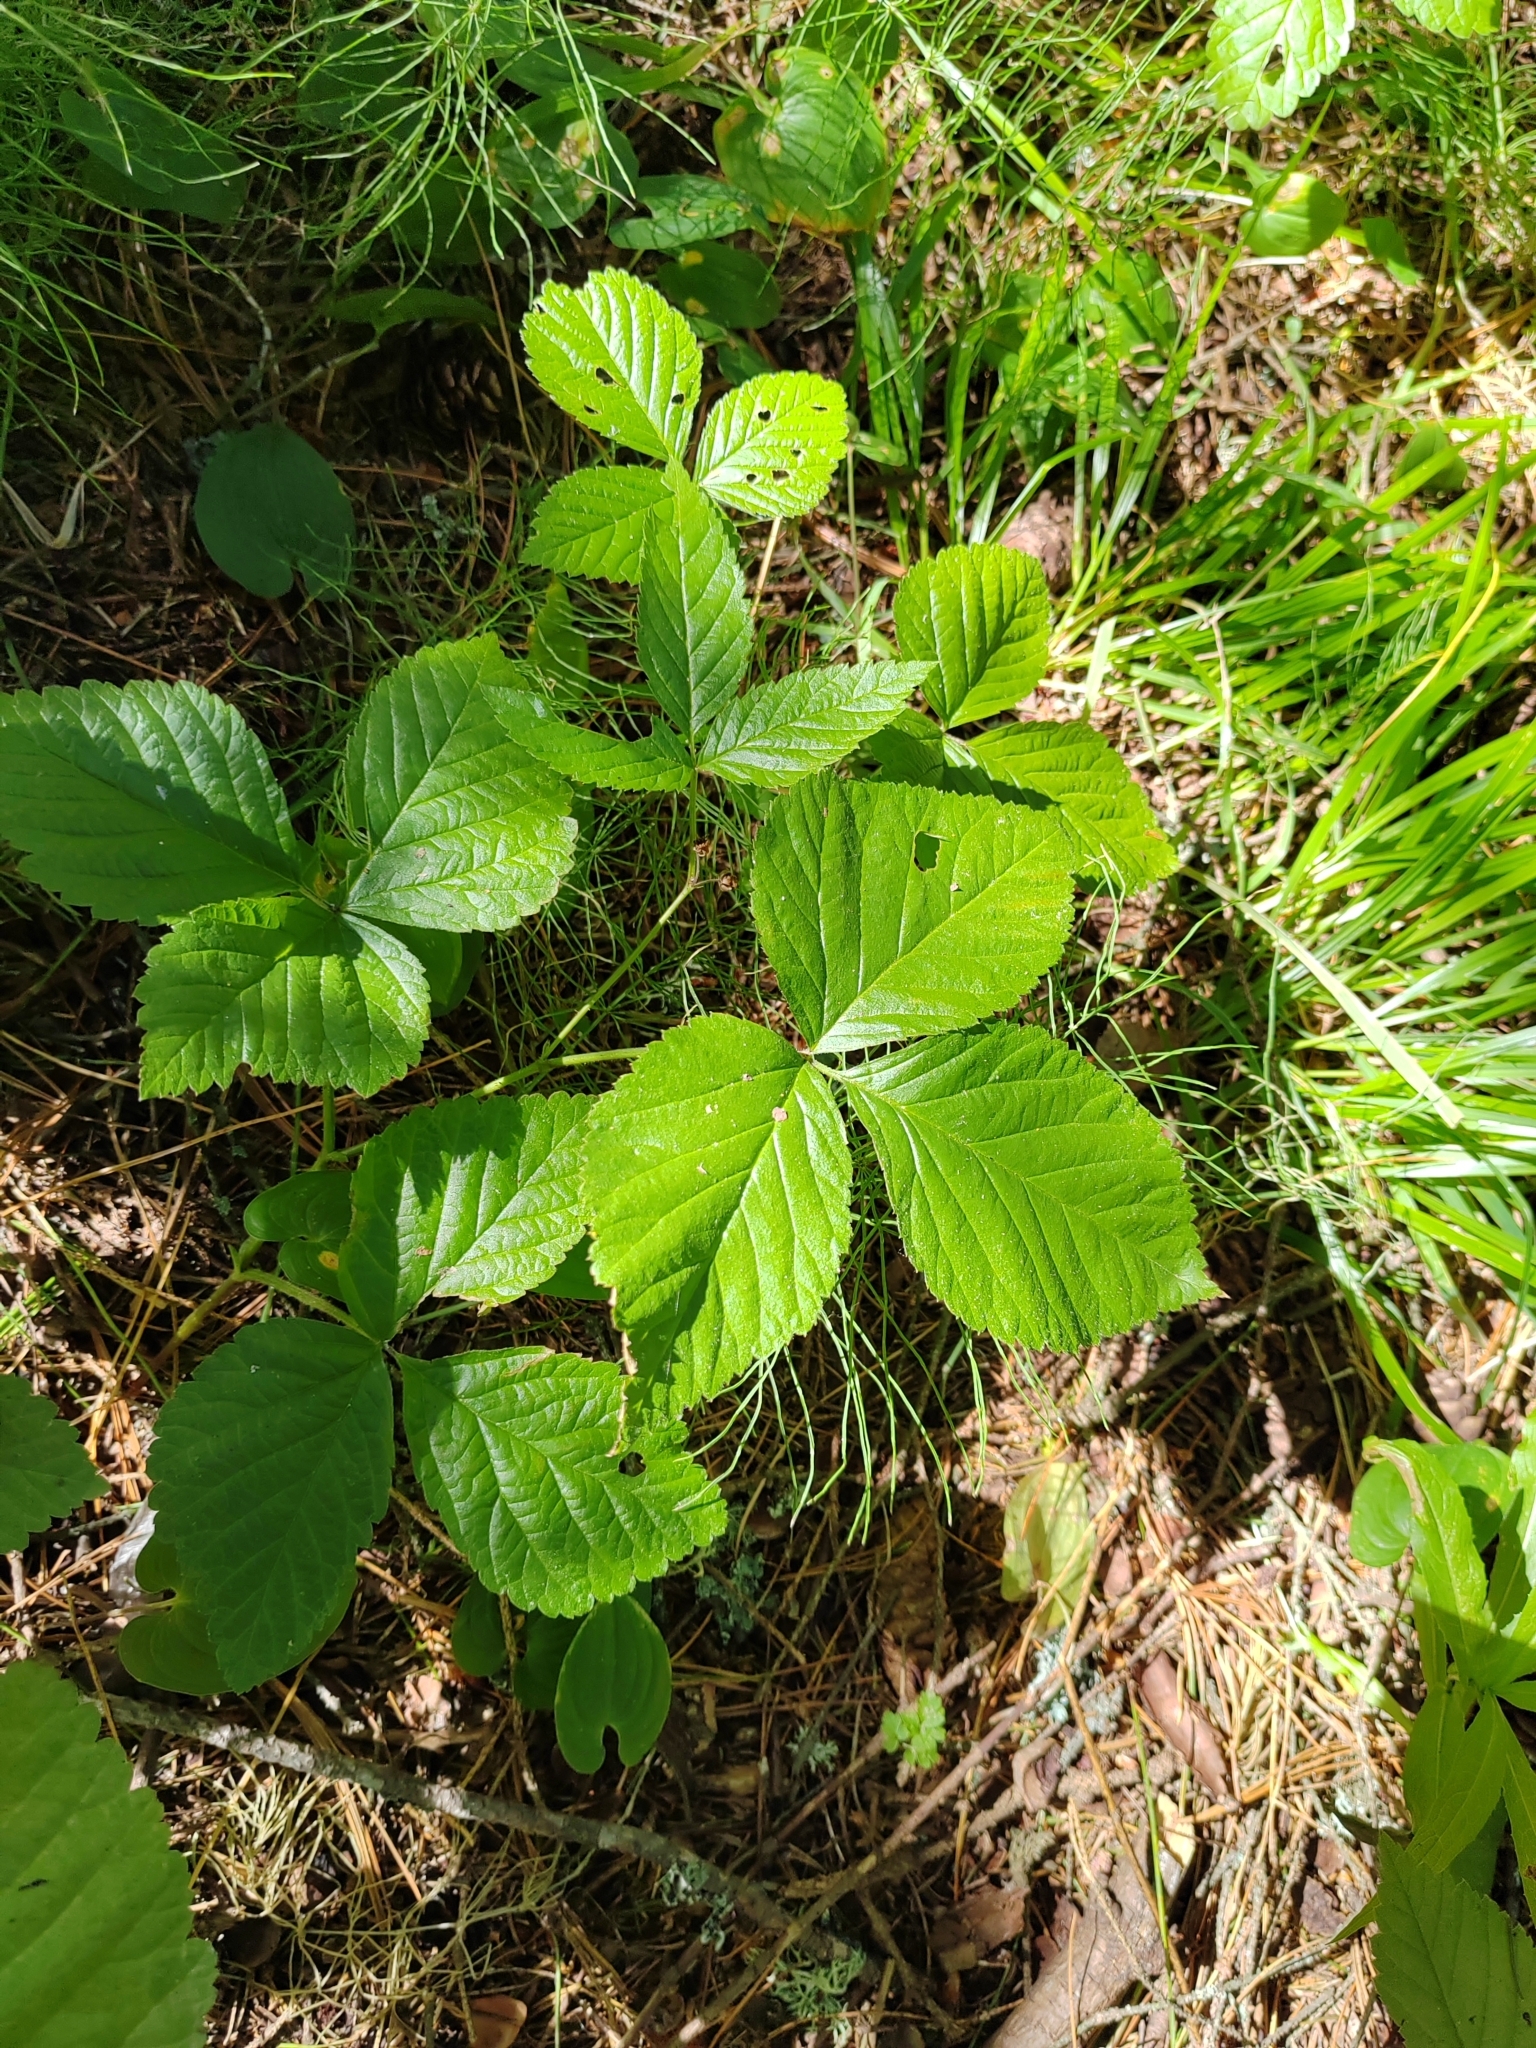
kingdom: Plantae
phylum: Tracheophyta
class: Magnoliopsida
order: Rosales
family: Rosaceae
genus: Rubus
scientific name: Rubus saxatilis
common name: Stone bramble
